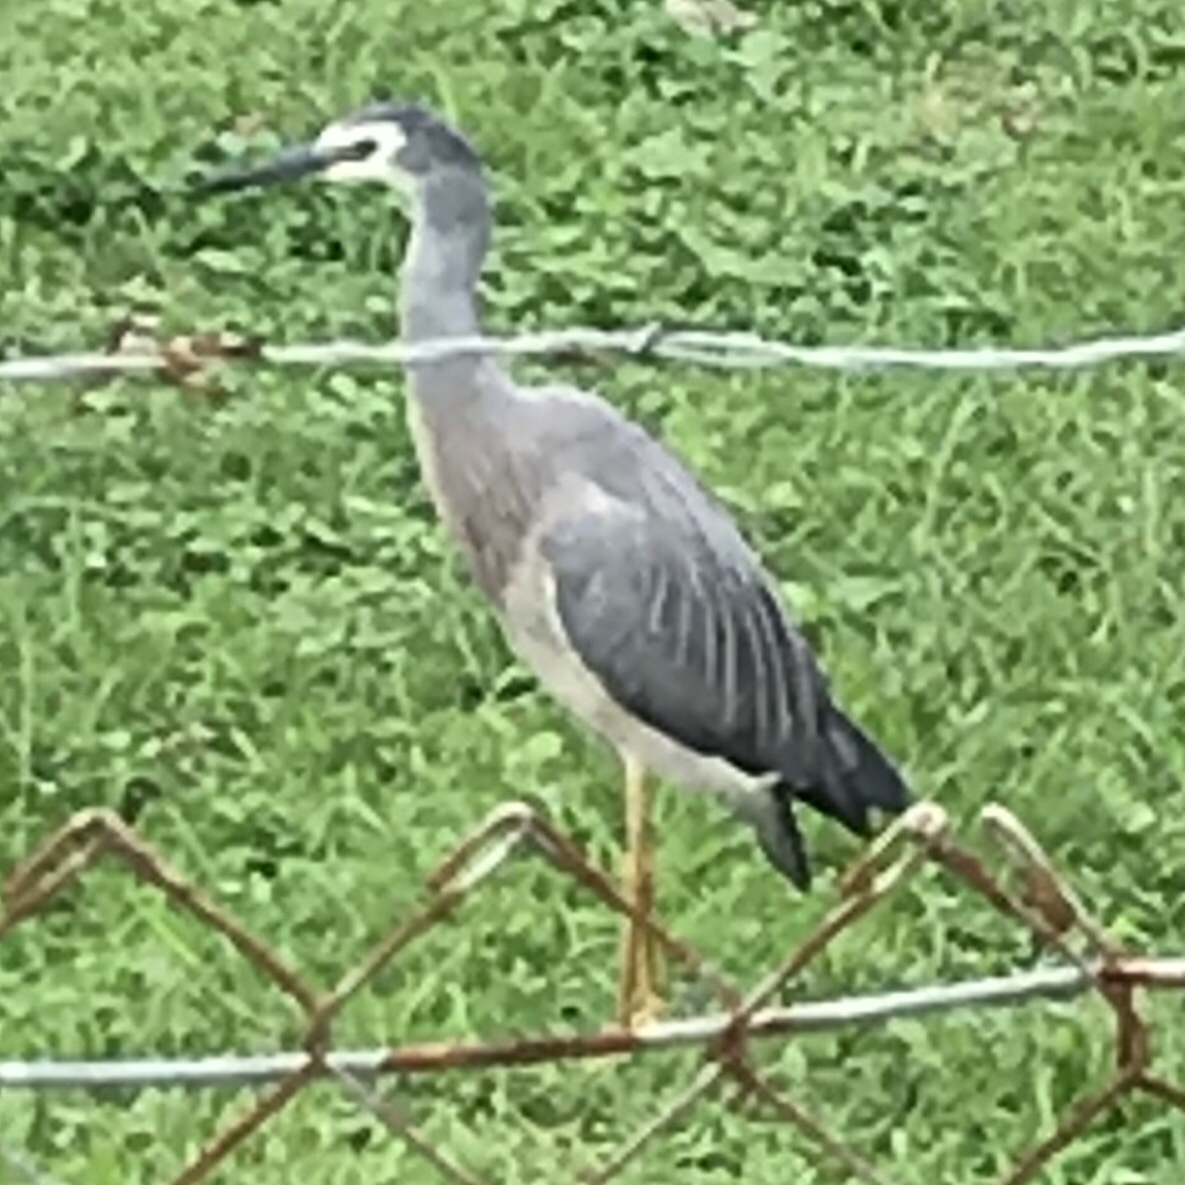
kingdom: Animalia
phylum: Chordata
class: Aves
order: Pelecaniformes
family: Ardeidae
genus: Egretta
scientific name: Egretta novaehollandiae
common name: White-faced heron
